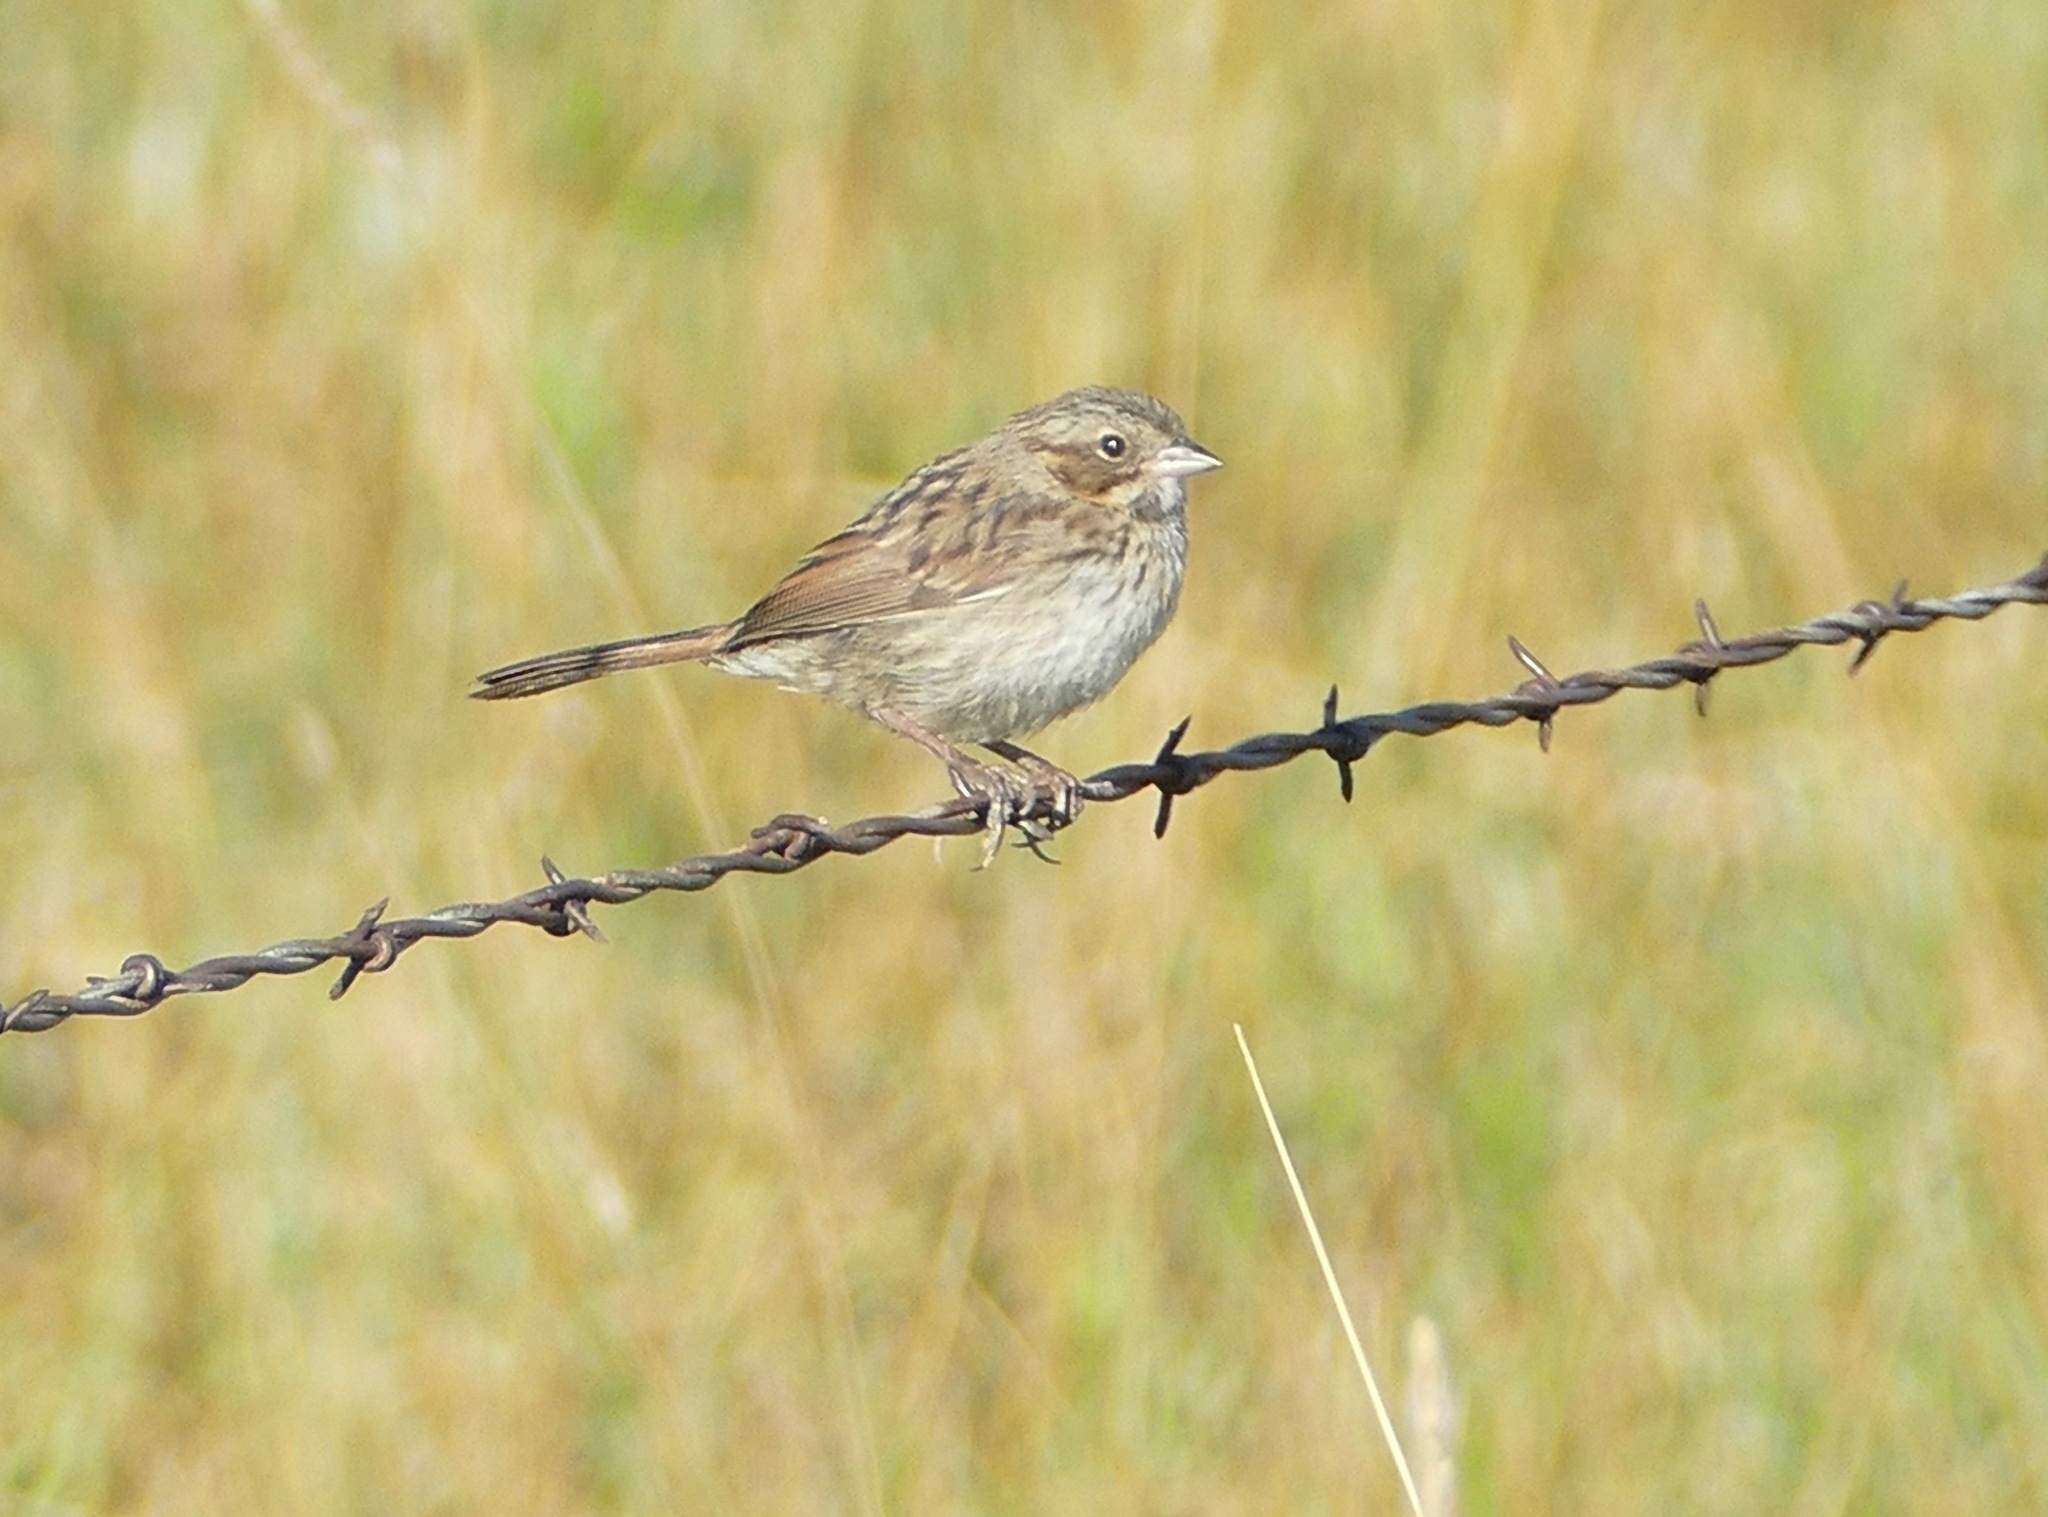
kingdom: Animalia
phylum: Chordata
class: Aves
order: Passeriformes
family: Passerellidae
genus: Melospiza
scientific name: Melospiza melodia
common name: Song sparrow
